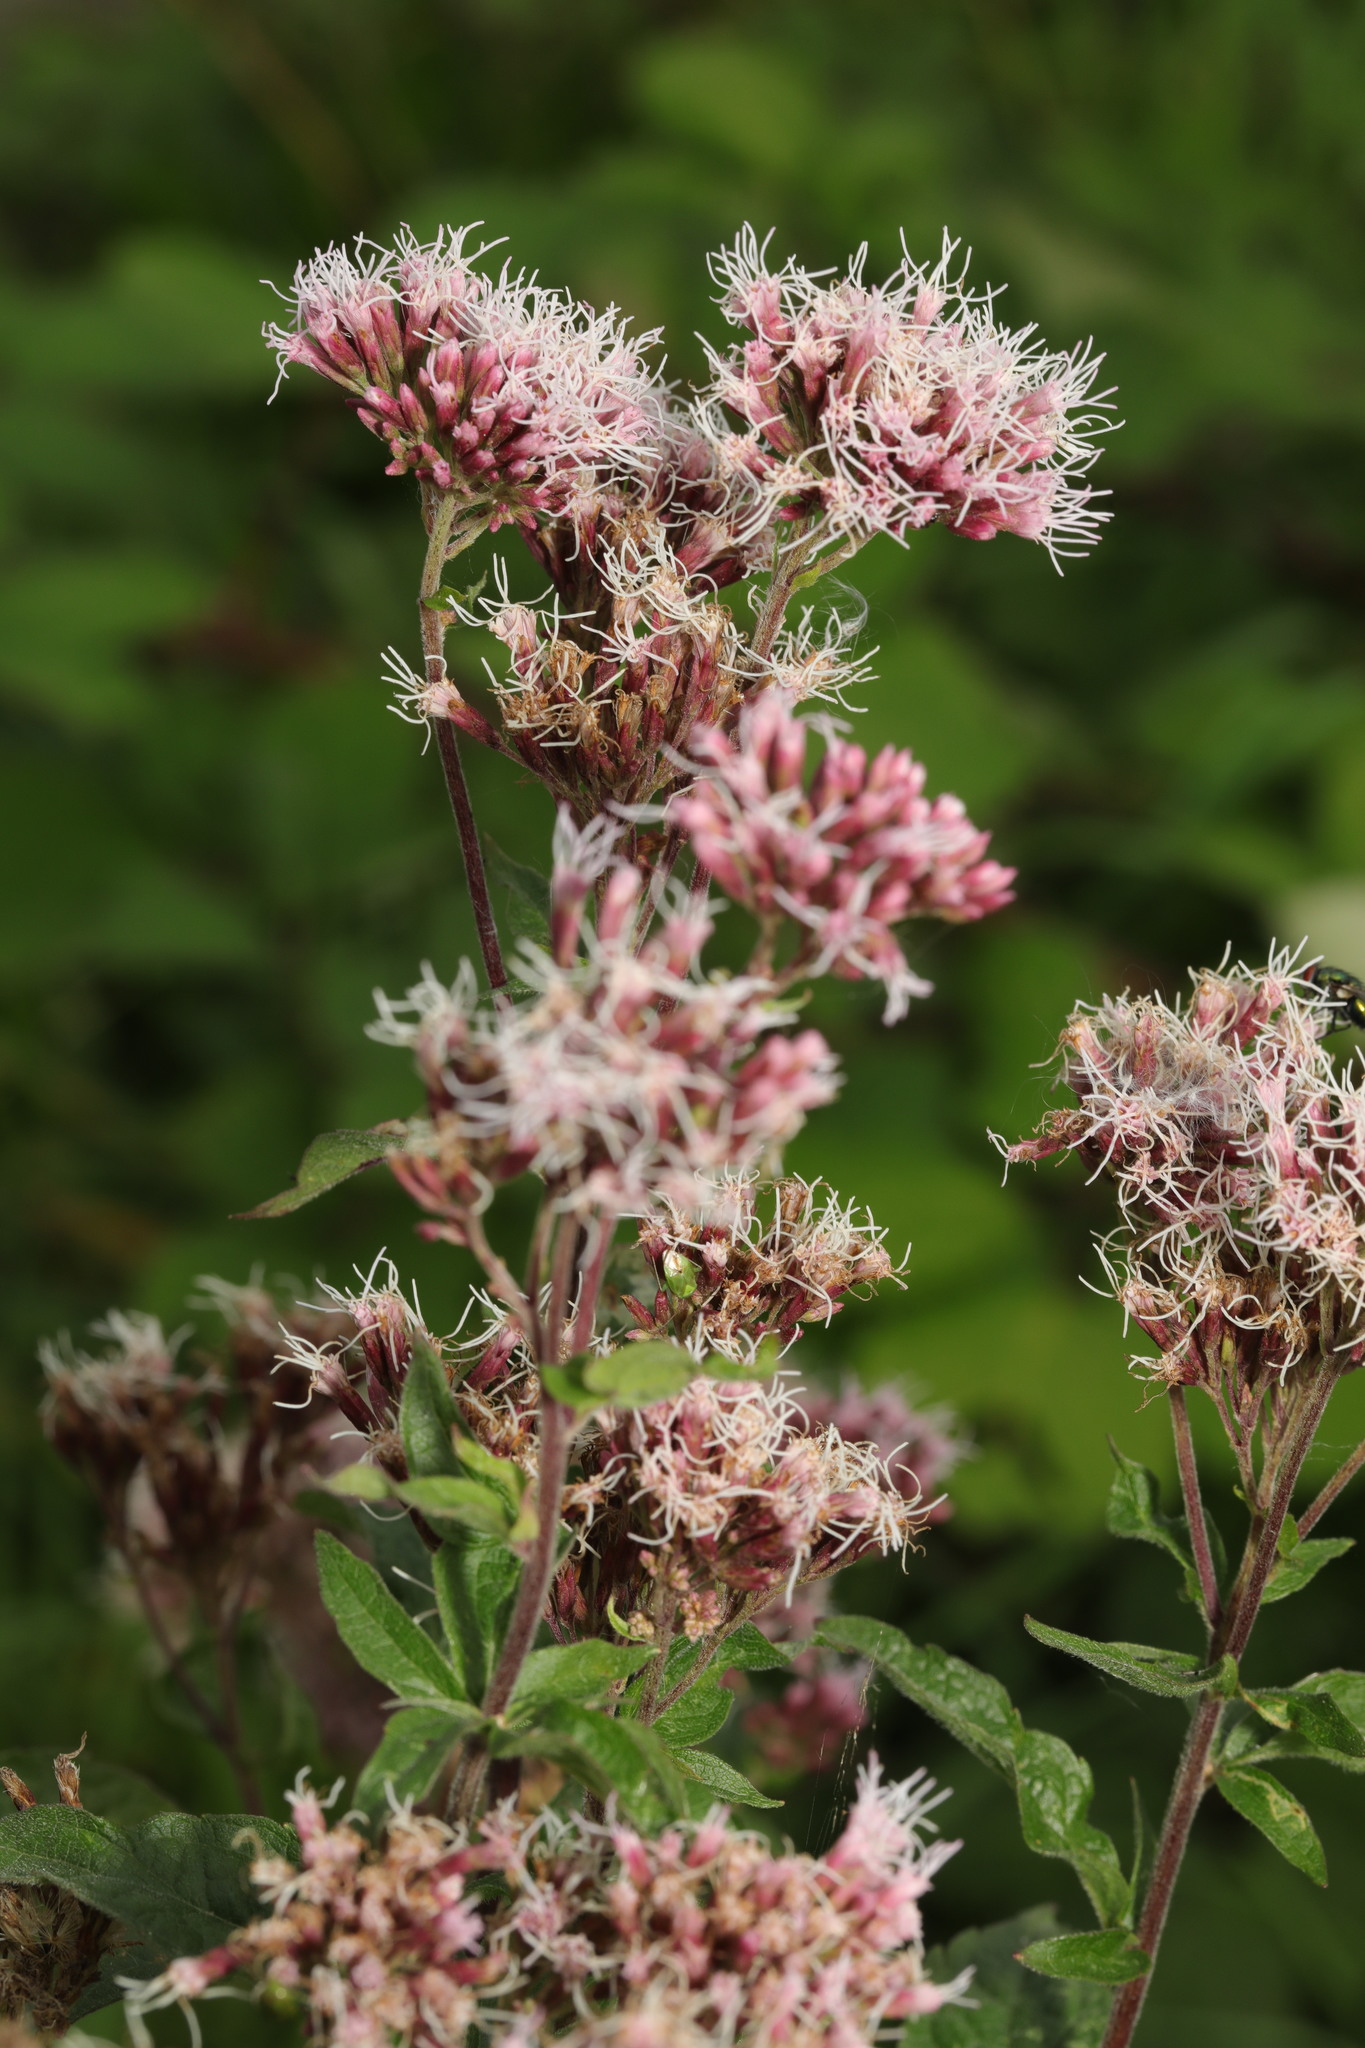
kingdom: Plantae
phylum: Tracheophyta
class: Magnoliopsida
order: Asterales
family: Asteraceae
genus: Eupatorium
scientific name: Eupatorium cannabinum
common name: Hemp-agrimony
